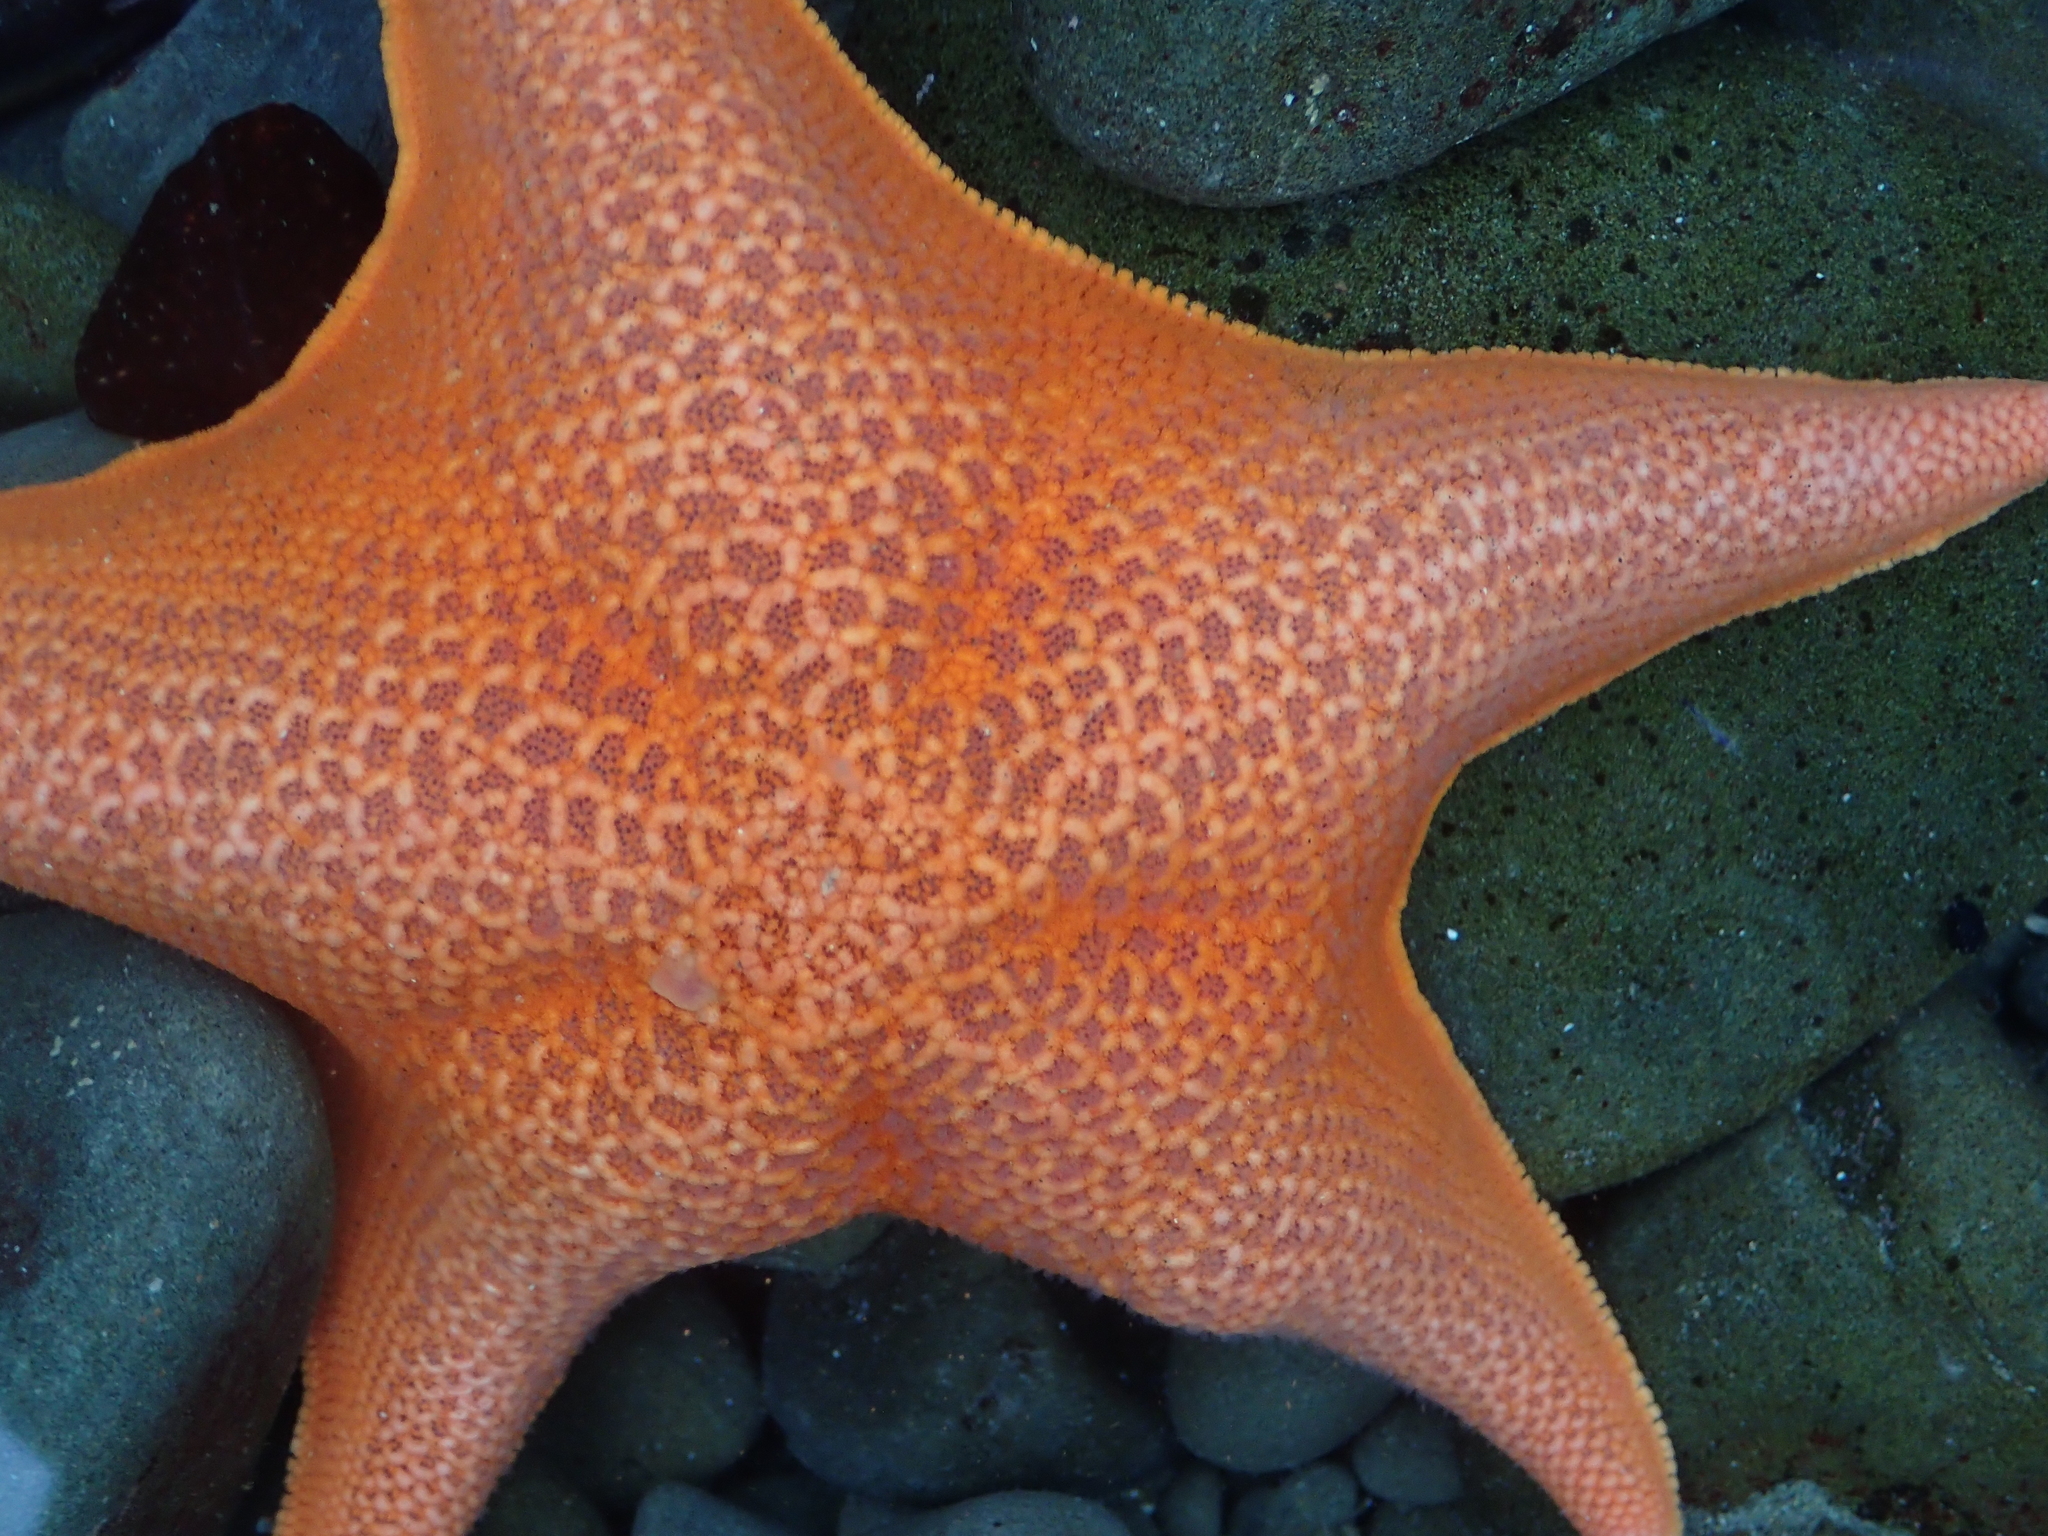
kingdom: Animalia
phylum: Echinodermata
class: Asteroidea
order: Valvatida
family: Asterinidae
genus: Patiria
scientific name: Patiria miniata
